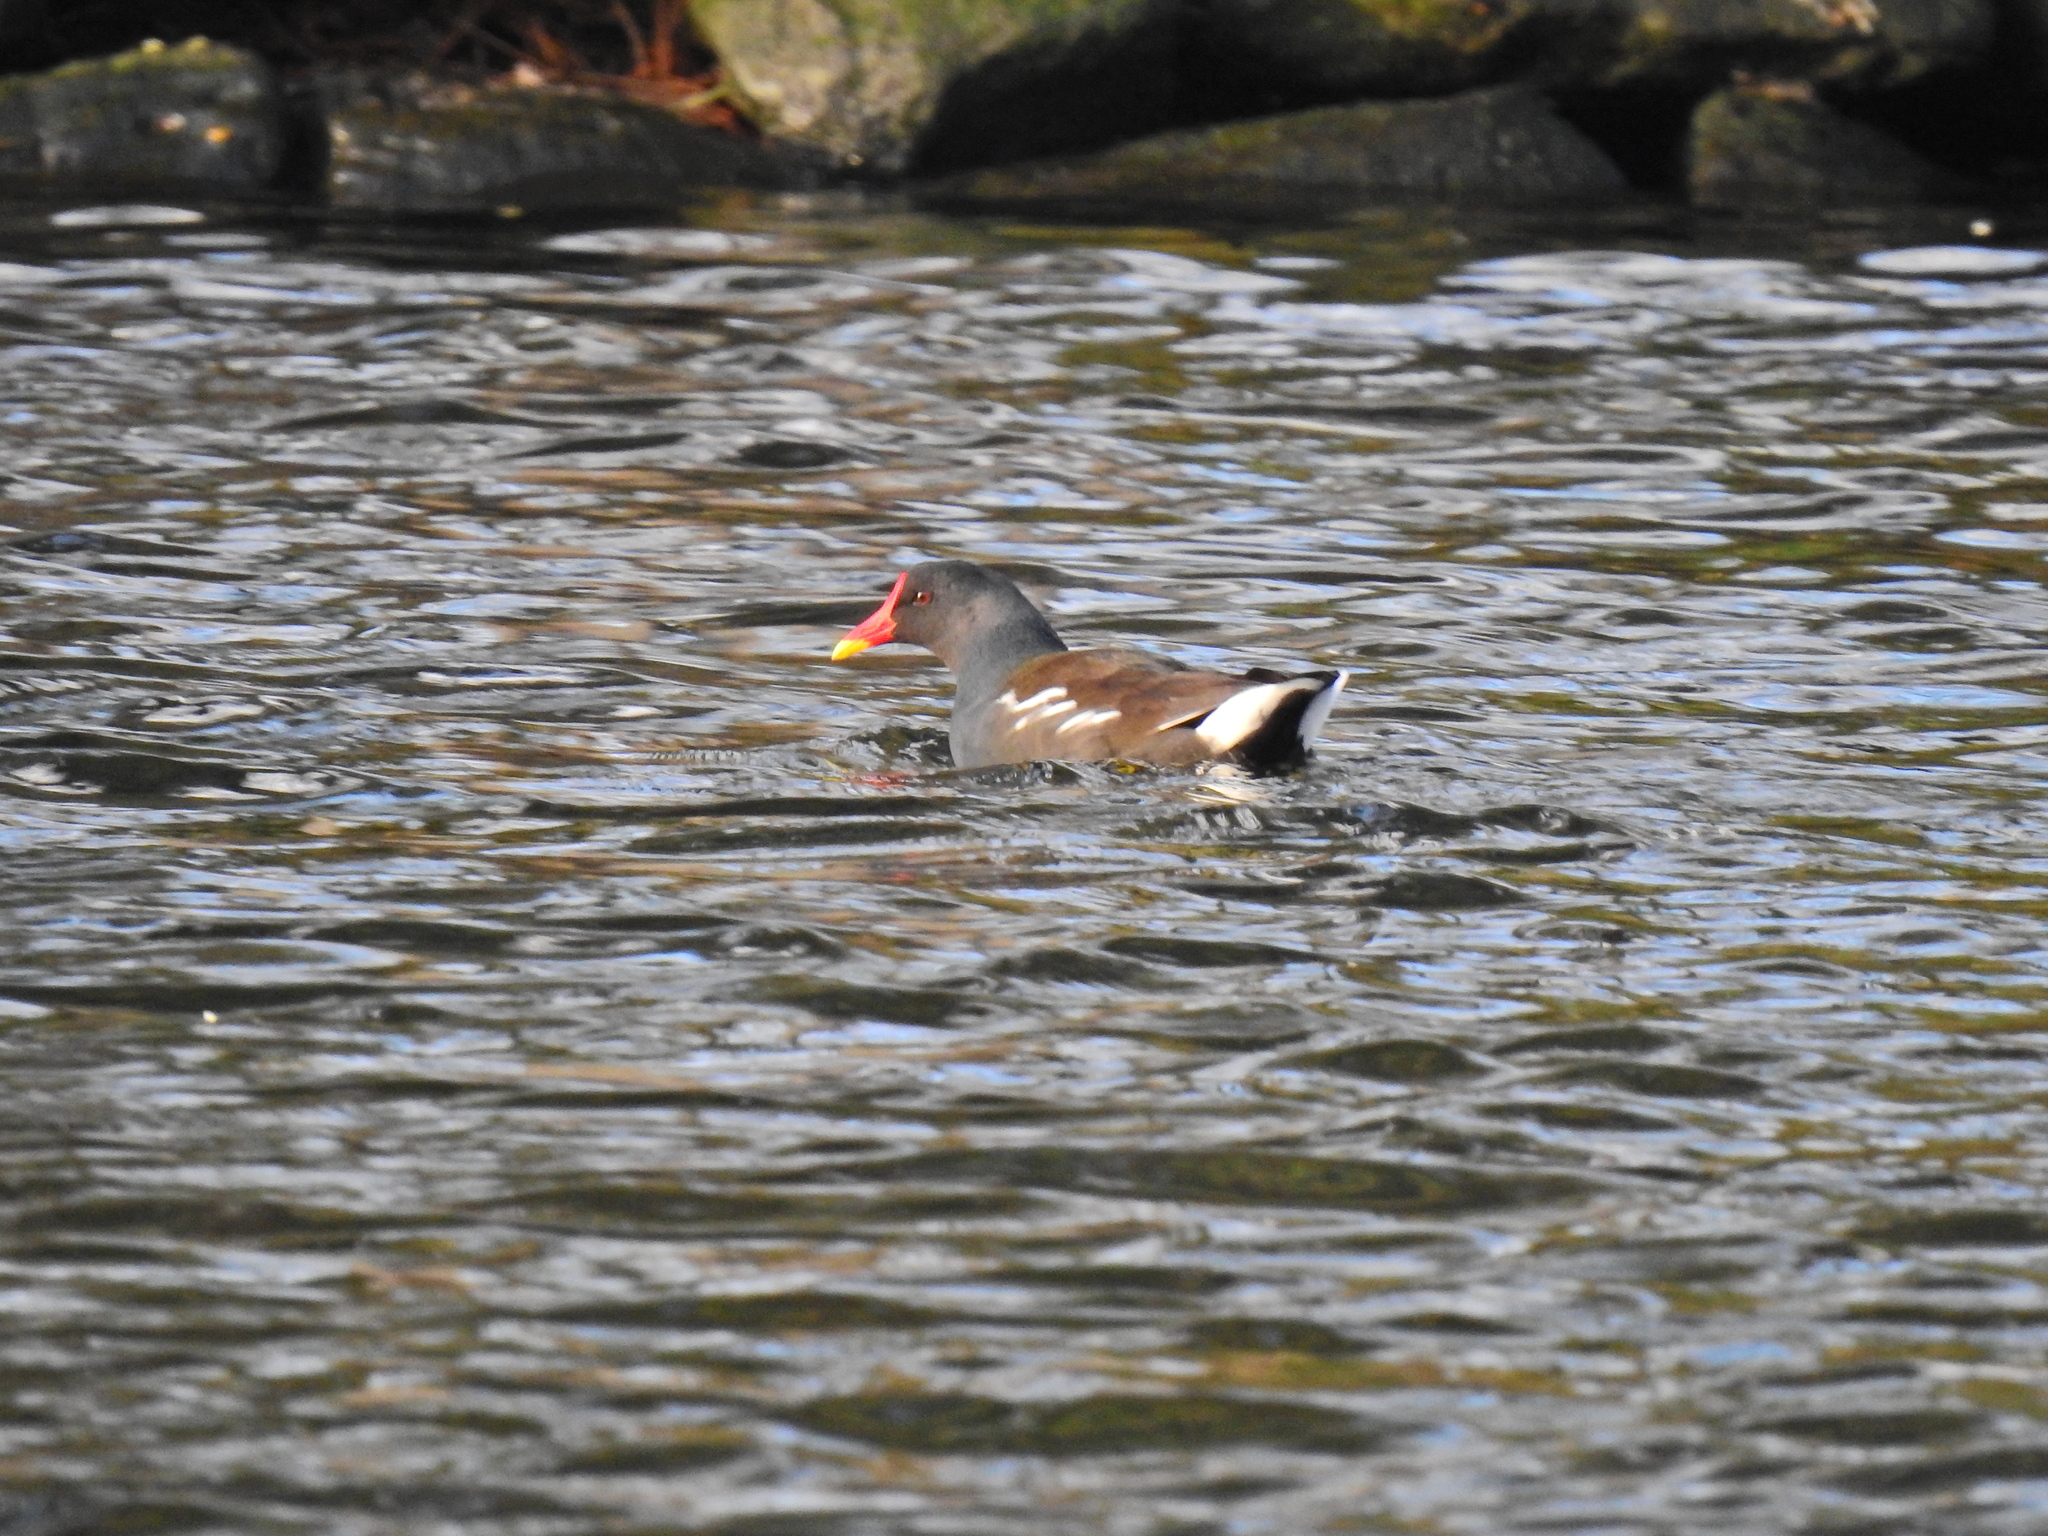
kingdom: Animalia
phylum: Chordata
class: Aves
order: Gruiformes
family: Rallidae
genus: Gallinula
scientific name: Gallinula chloropus
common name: Common moorhen
